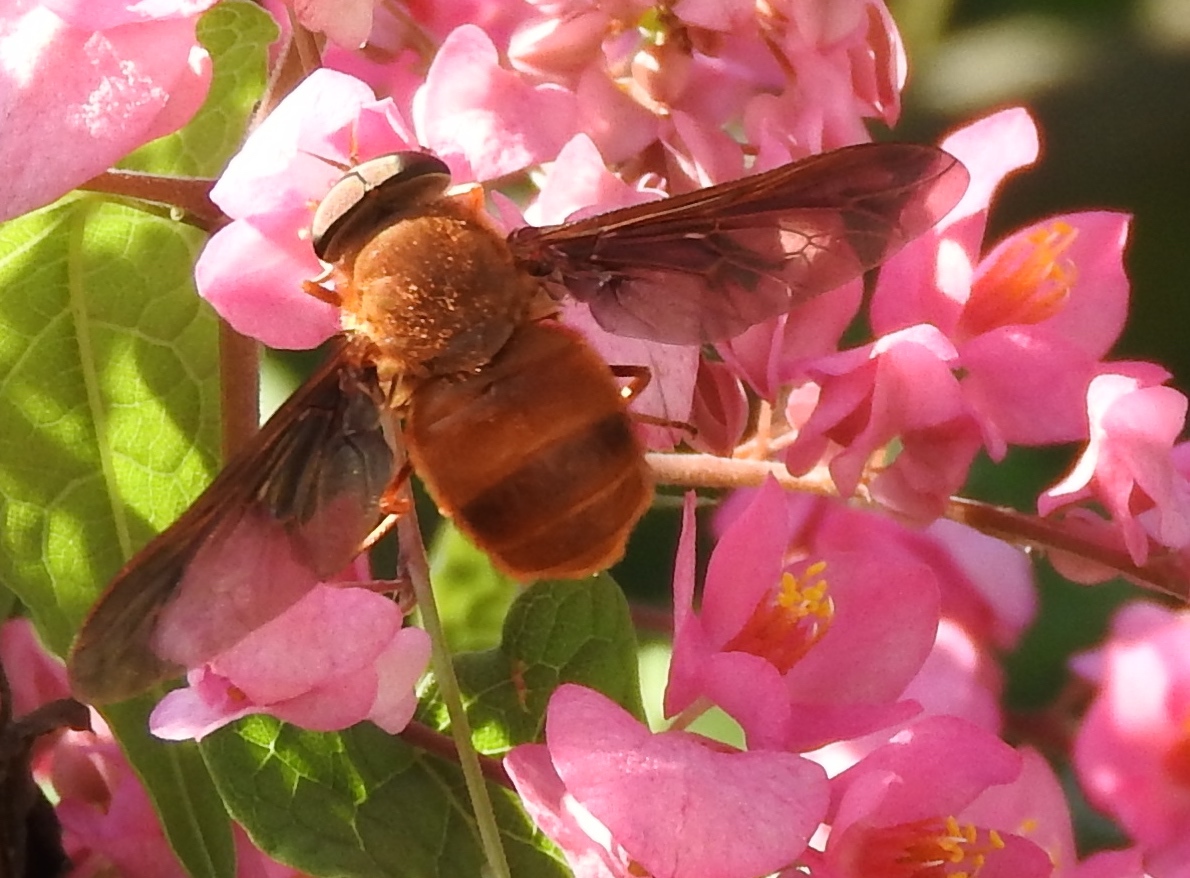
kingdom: Animalia
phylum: Arthropoda
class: Insecta
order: Diptera
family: Tabanidae
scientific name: Tabanidae
